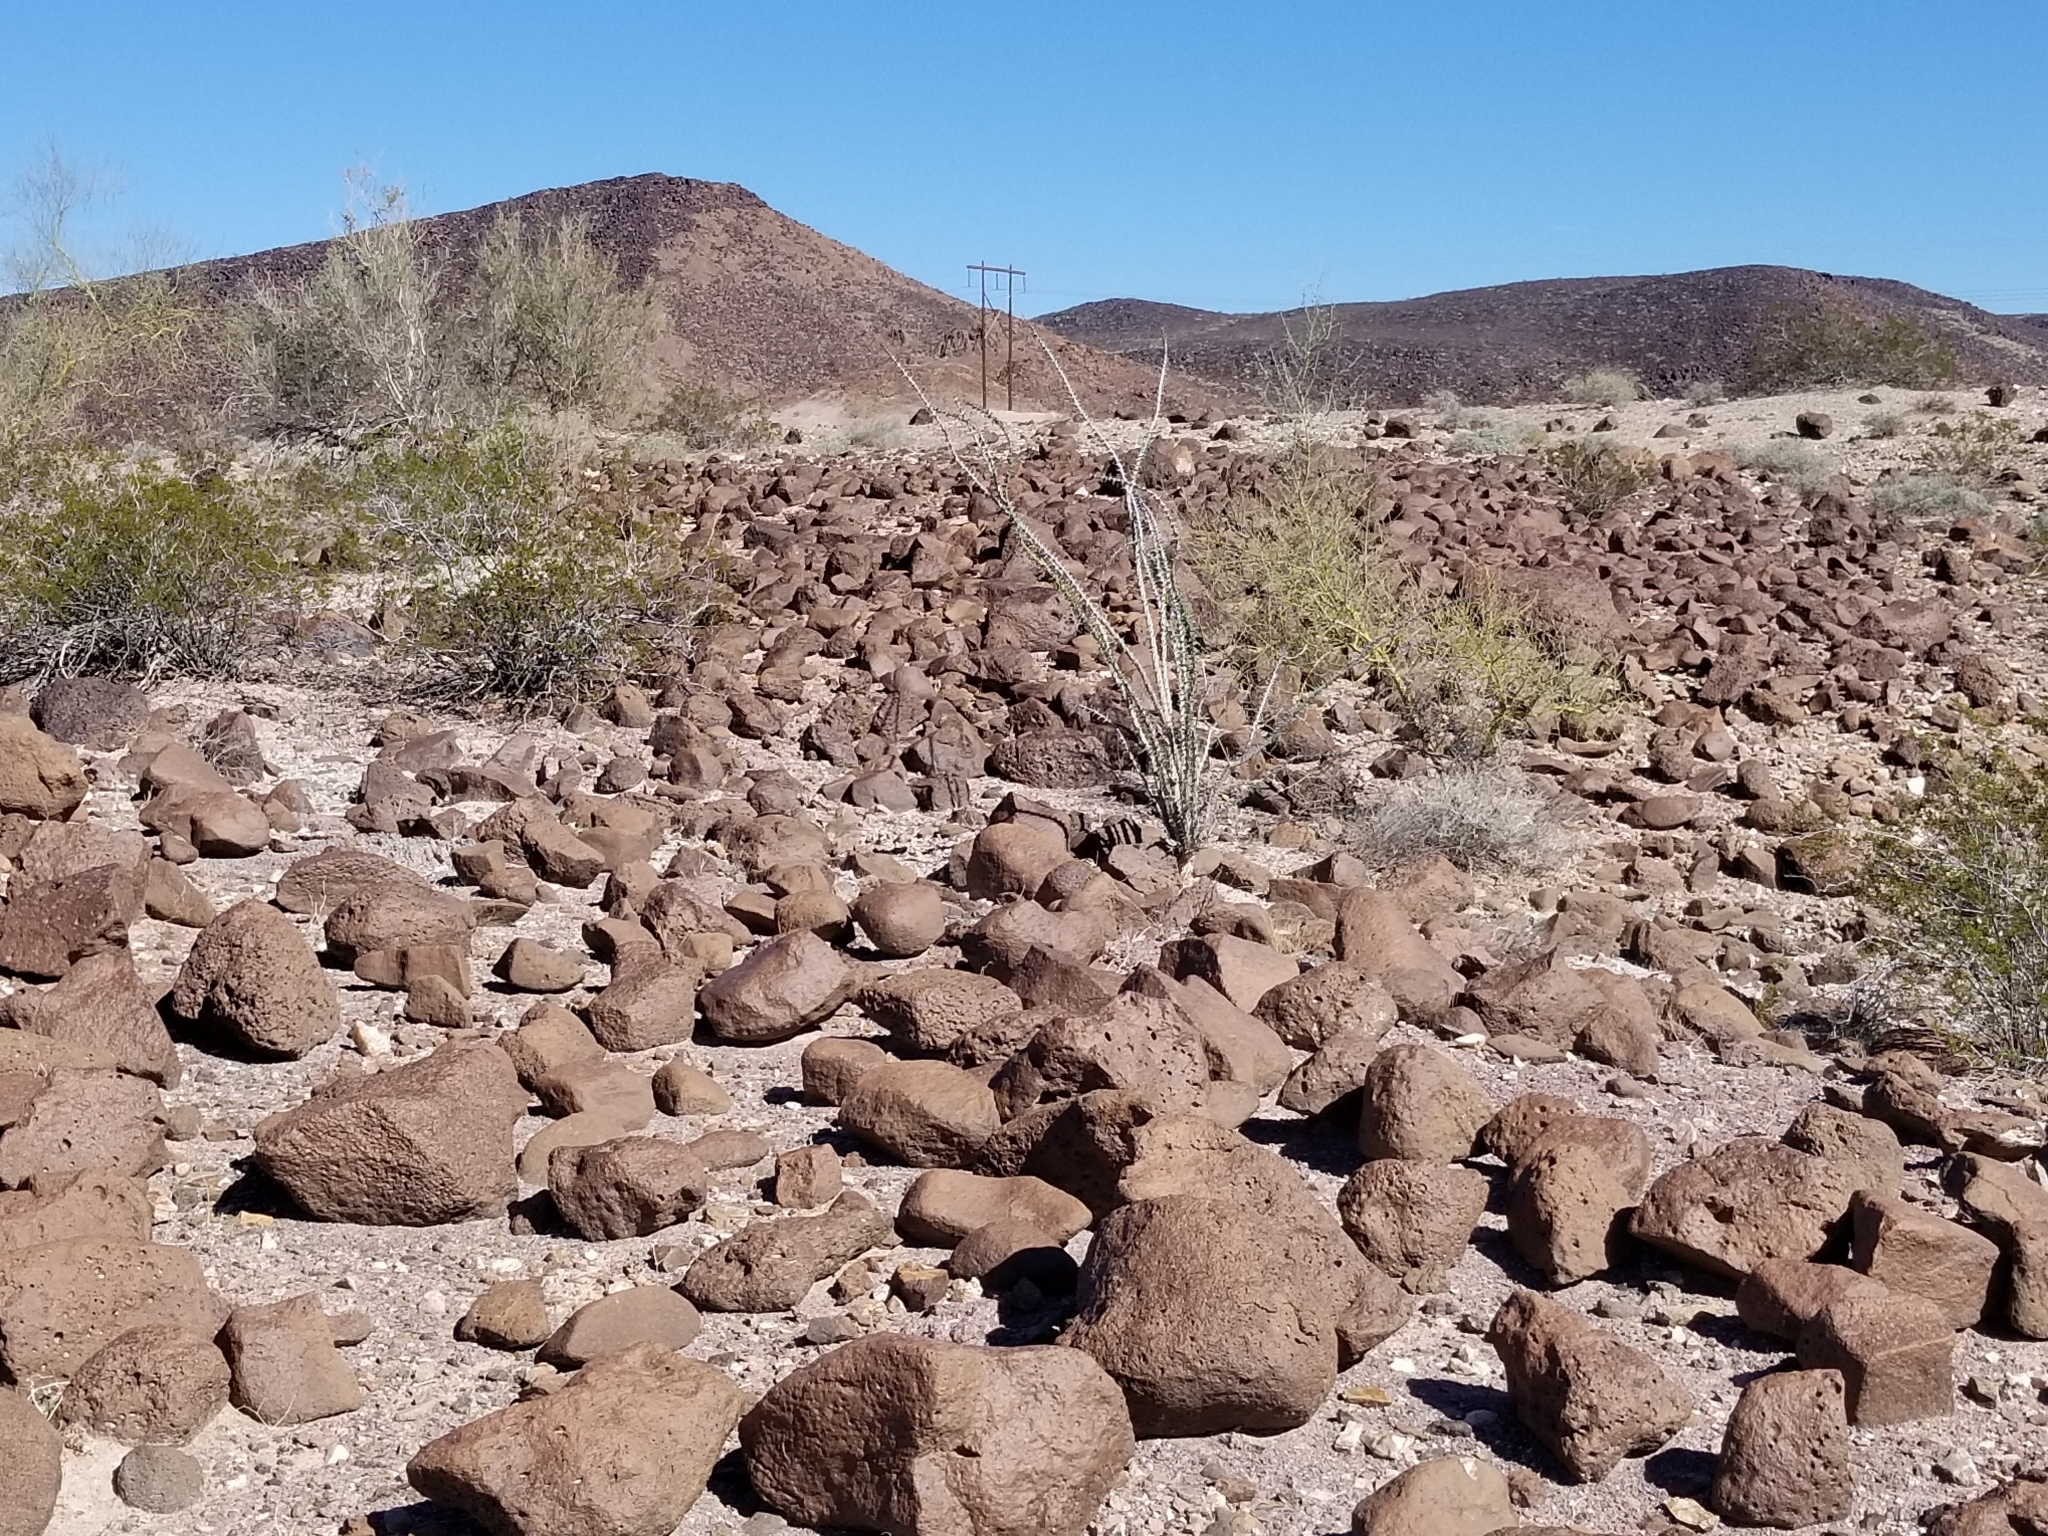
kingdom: Plantae
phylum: Tracheophyta
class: Magnoliopsida
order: Ericales
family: Fouquieriaceae
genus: Fouquieria
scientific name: Fouquieria splendens
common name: Vine-cactus
